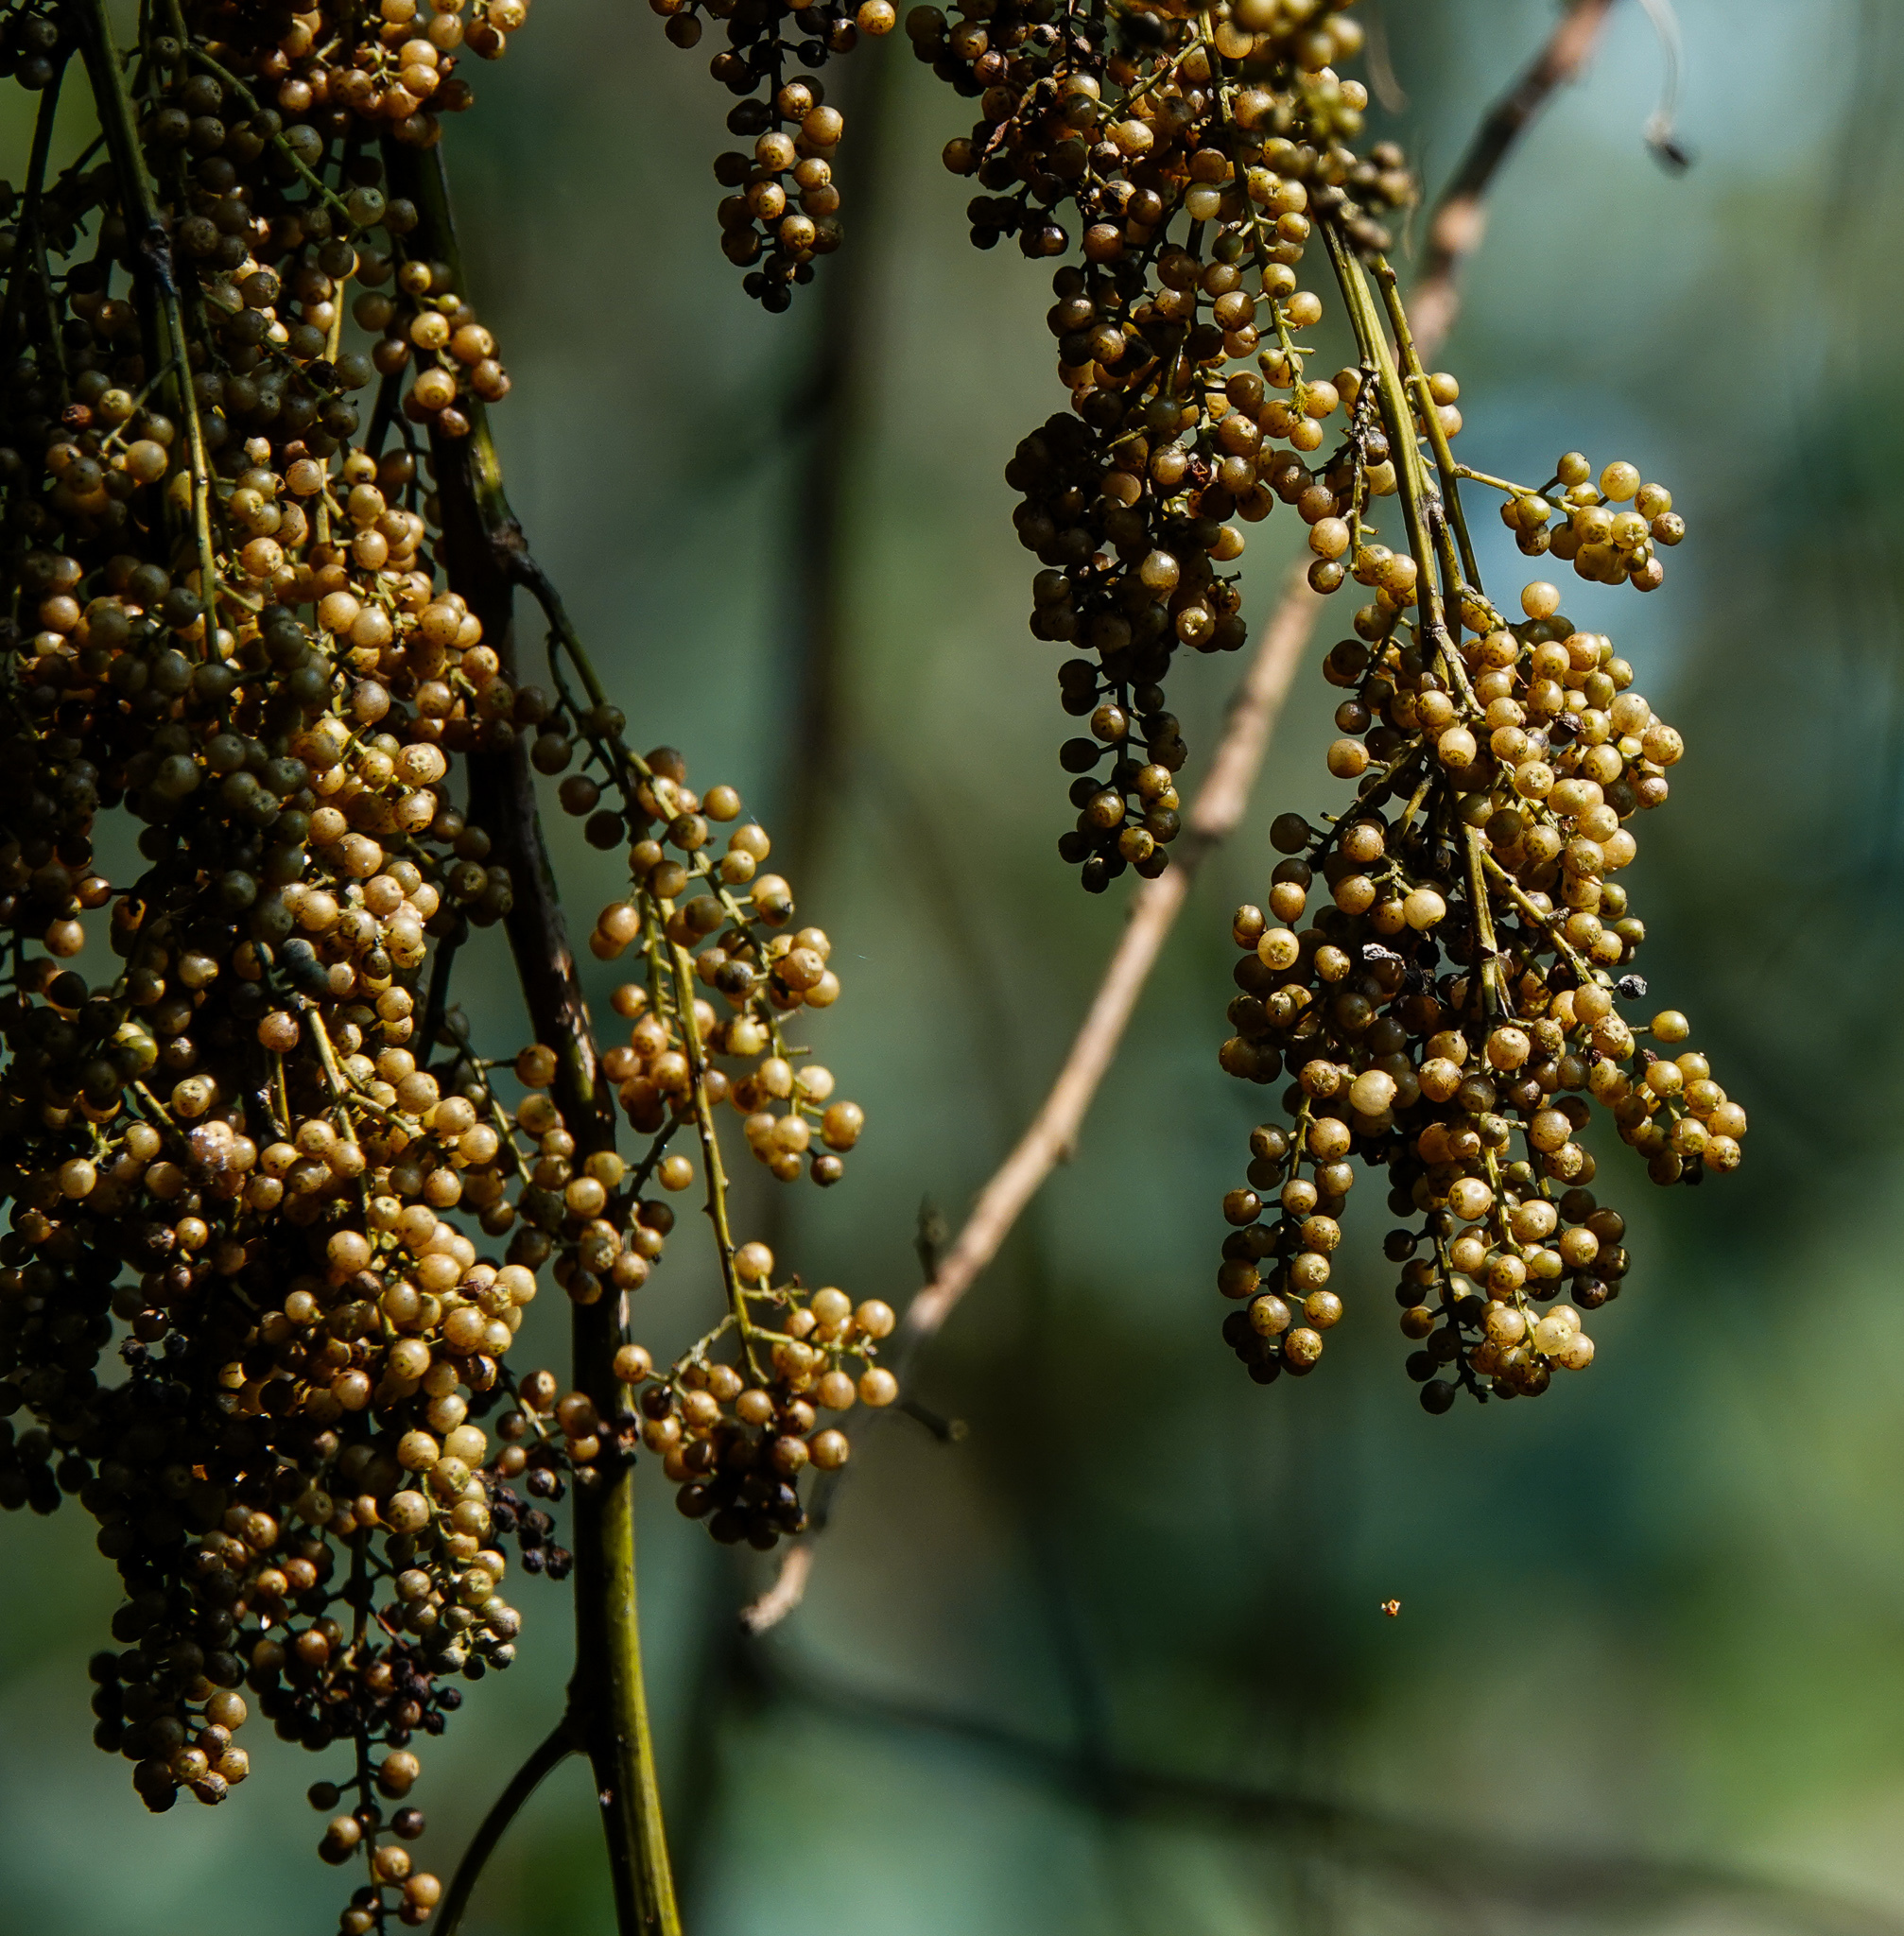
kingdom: Plantae
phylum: Tracheophyta
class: Magnoliopsida
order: Ranunculales
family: Menispermaceae
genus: Anamirta
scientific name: Anamirta cocculus
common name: Levantnut
